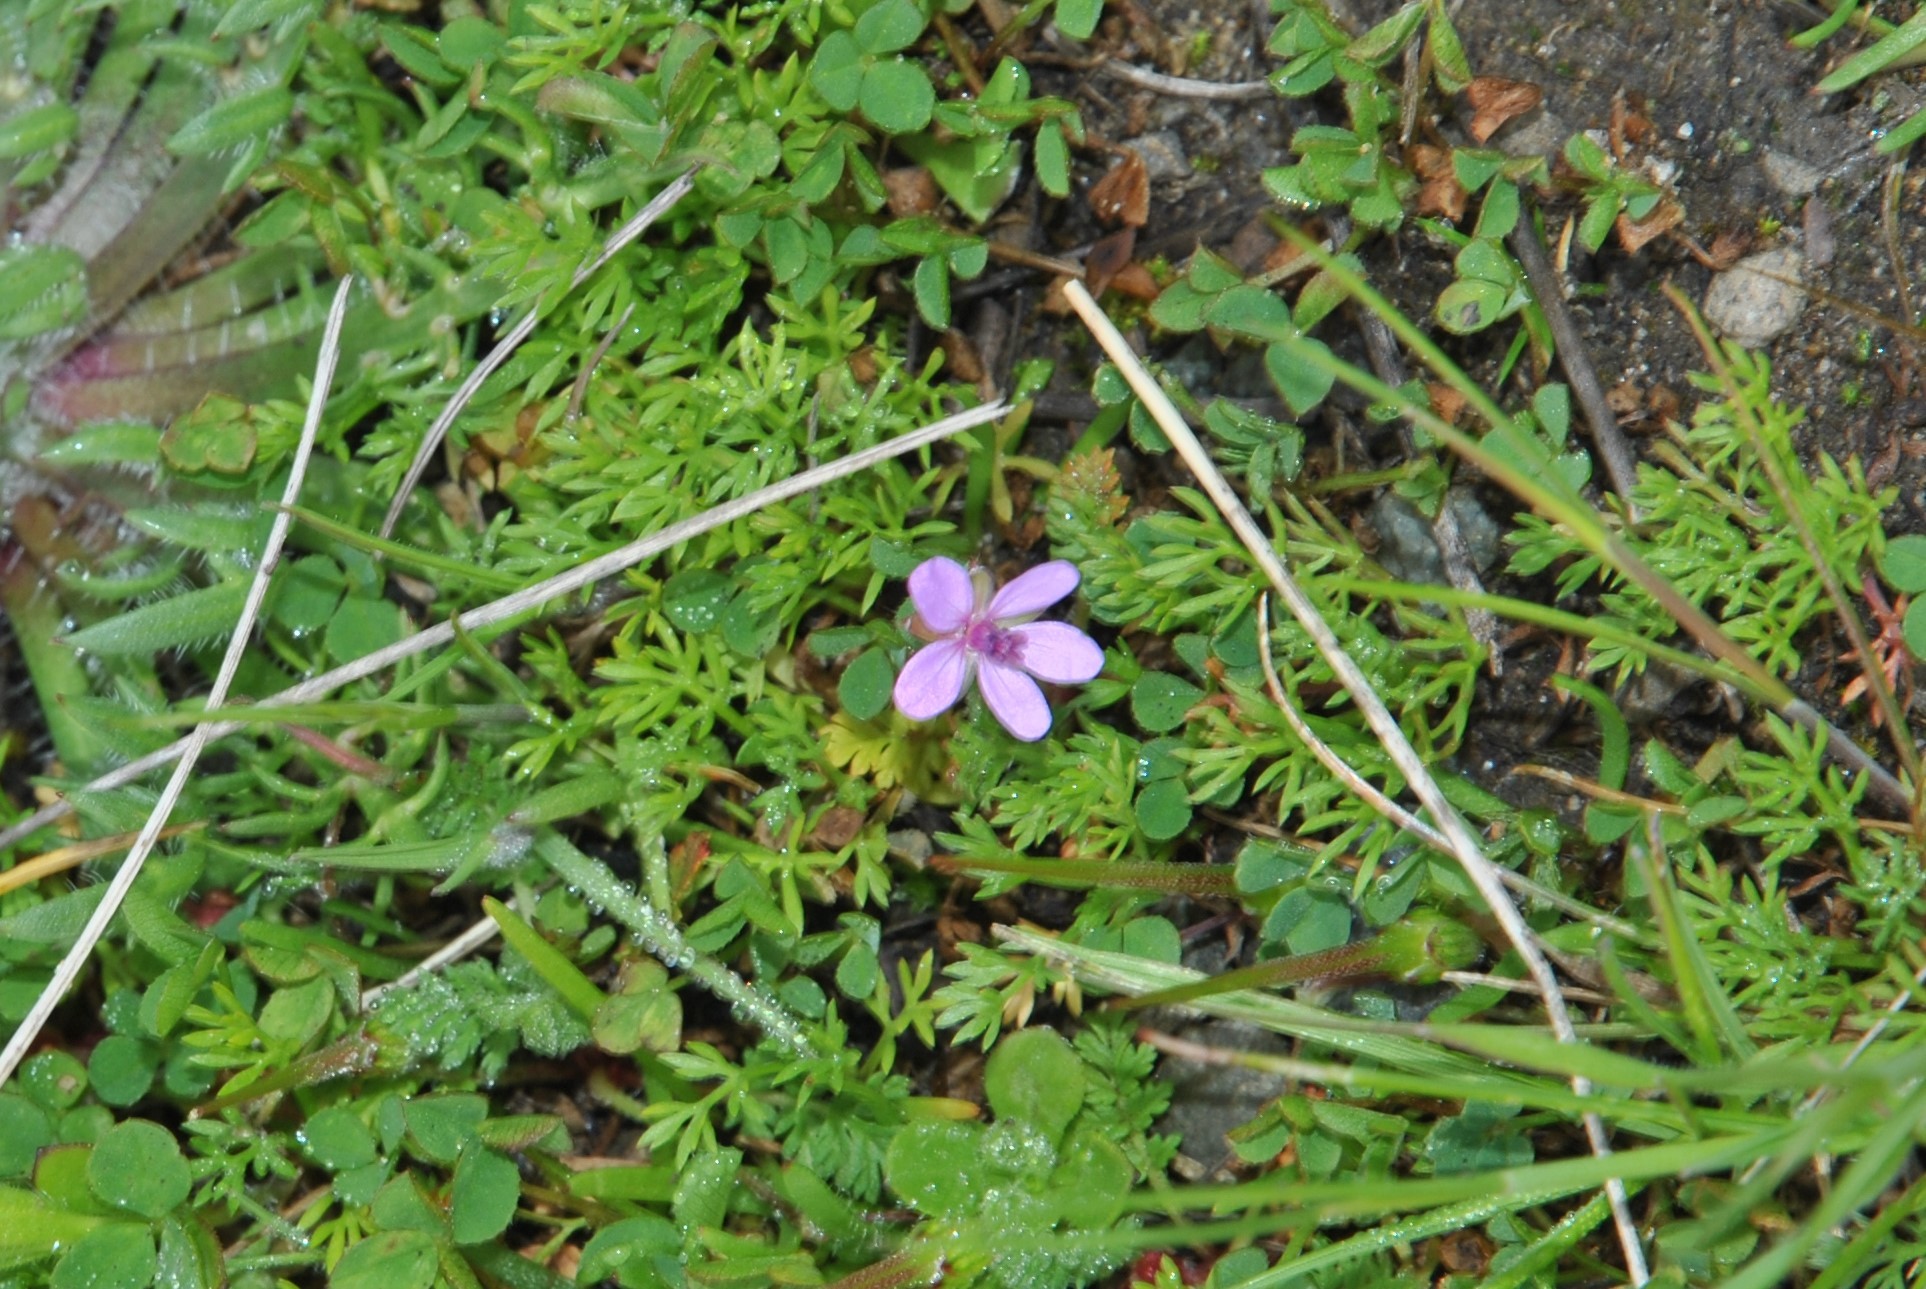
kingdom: Plantae
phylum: Tracheophyta
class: Magnoliopsida
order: Geraniales
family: Geraniaceae
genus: Erodium
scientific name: Erodium cicutarium
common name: Common stork's-bill
